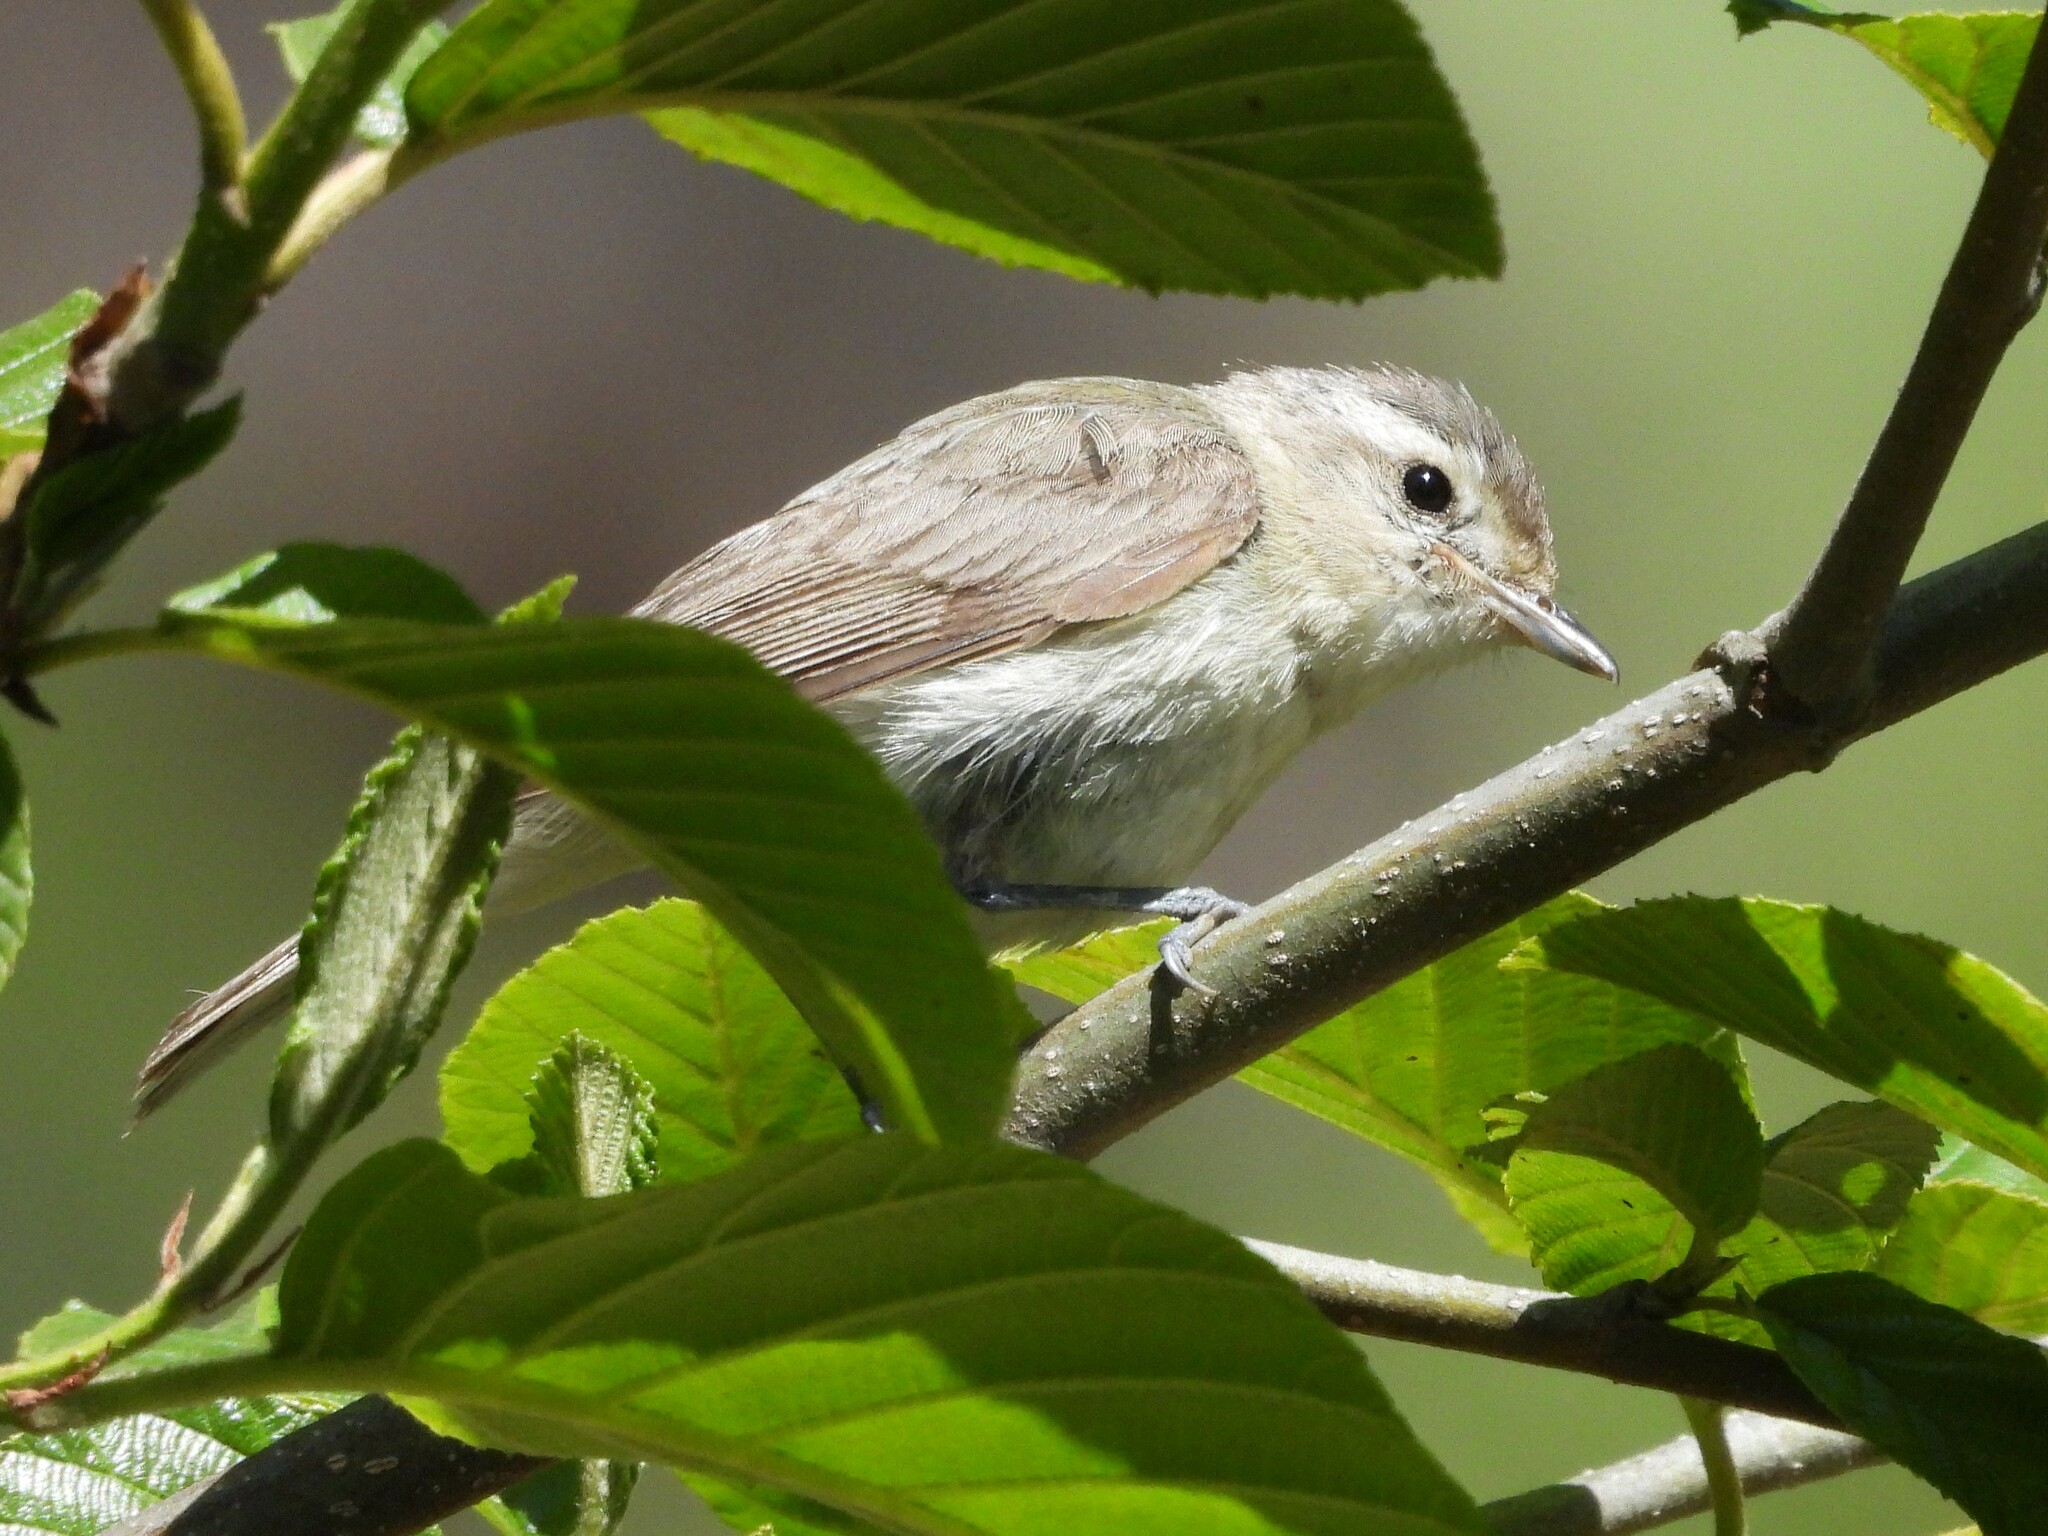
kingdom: Animalia
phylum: Chordata
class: Aves
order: Passeriformes
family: Vireonidae
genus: Vireo
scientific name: Vireo gilvus
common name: Warbling vireo
